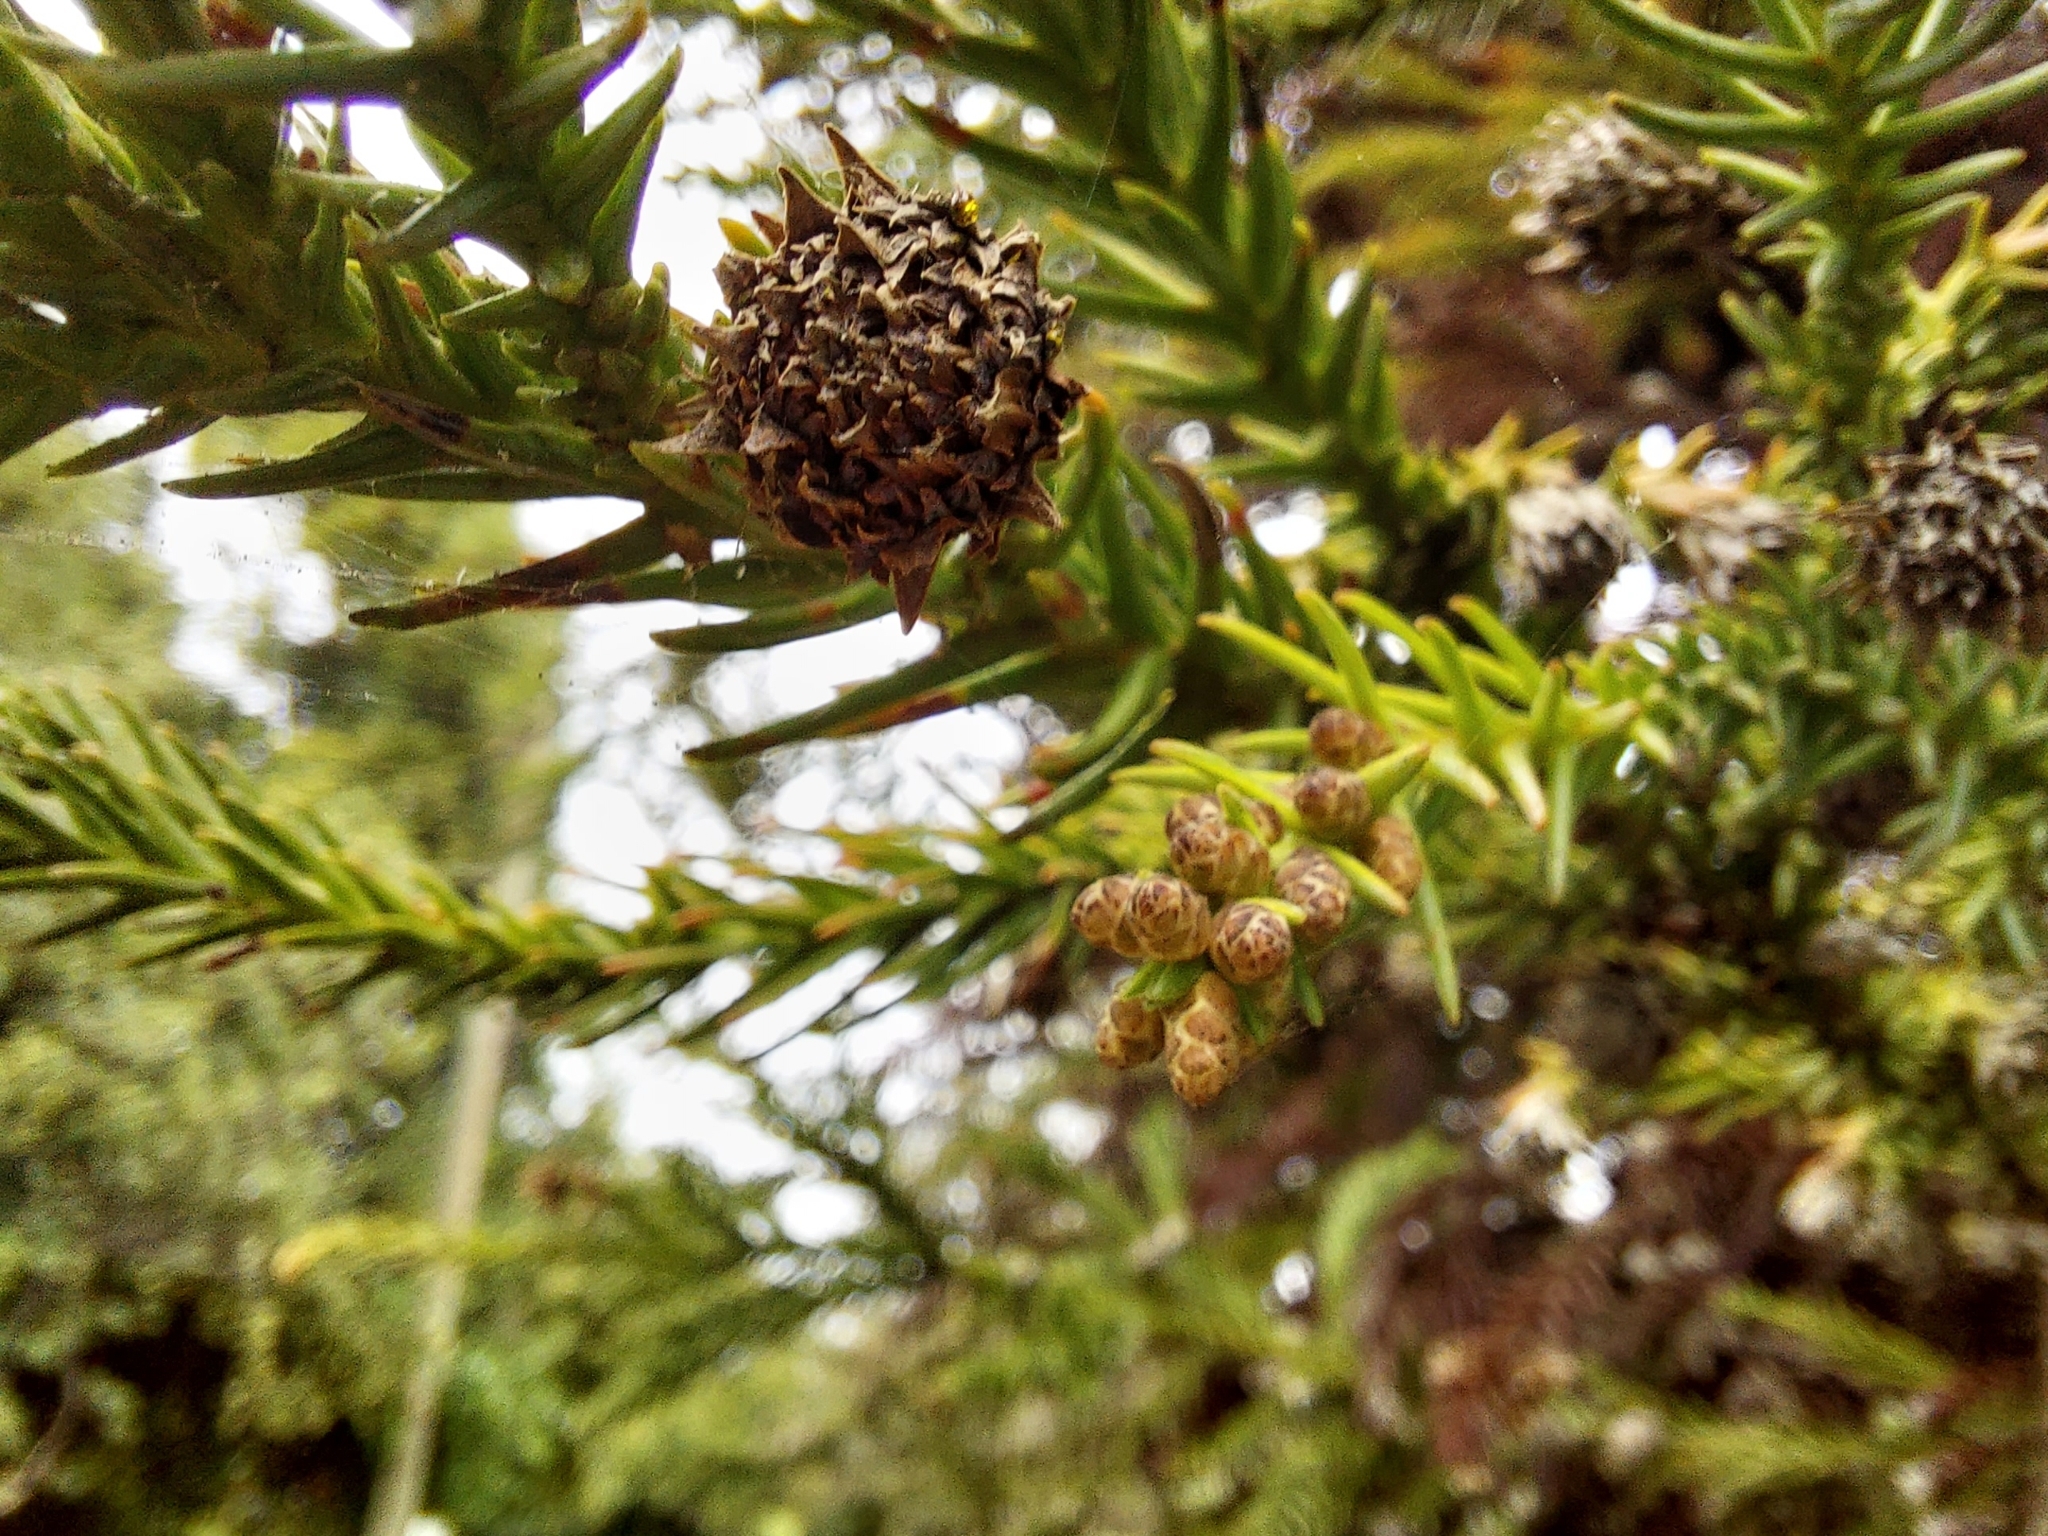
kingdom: Plantae
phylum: Tracheophyta
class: Pinopsida
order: Pinales
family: Cupressaceae
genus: Cryptomeria
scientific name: Cryptomeria japonica
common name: Japanese cedar
